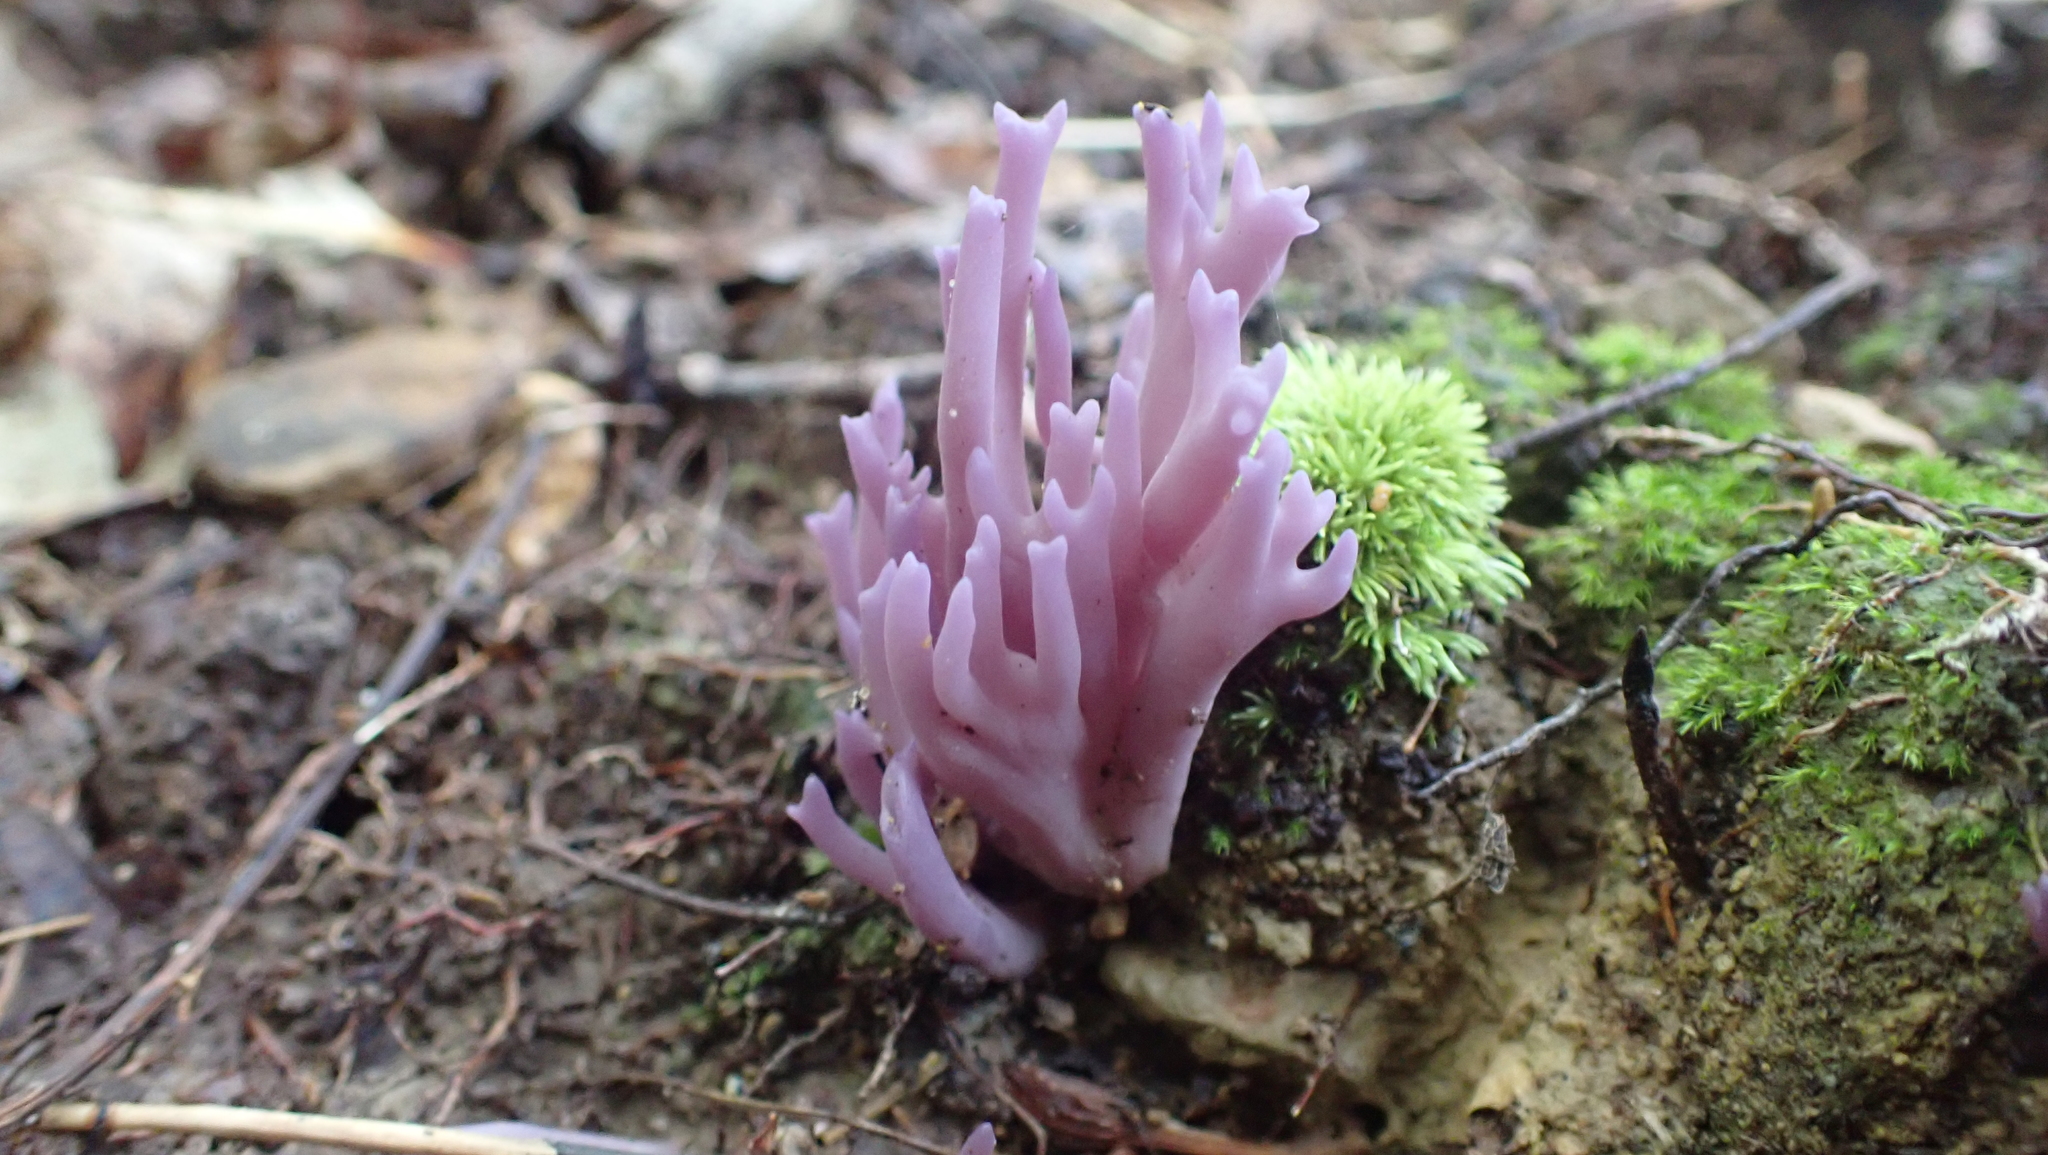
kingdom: Fungi
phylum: Basidiomycota
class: Agaricomycetes
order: Agaricales
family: Clavariaceae
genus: Clavaria
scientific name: Clavaria zollingeri
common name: Violet coral
